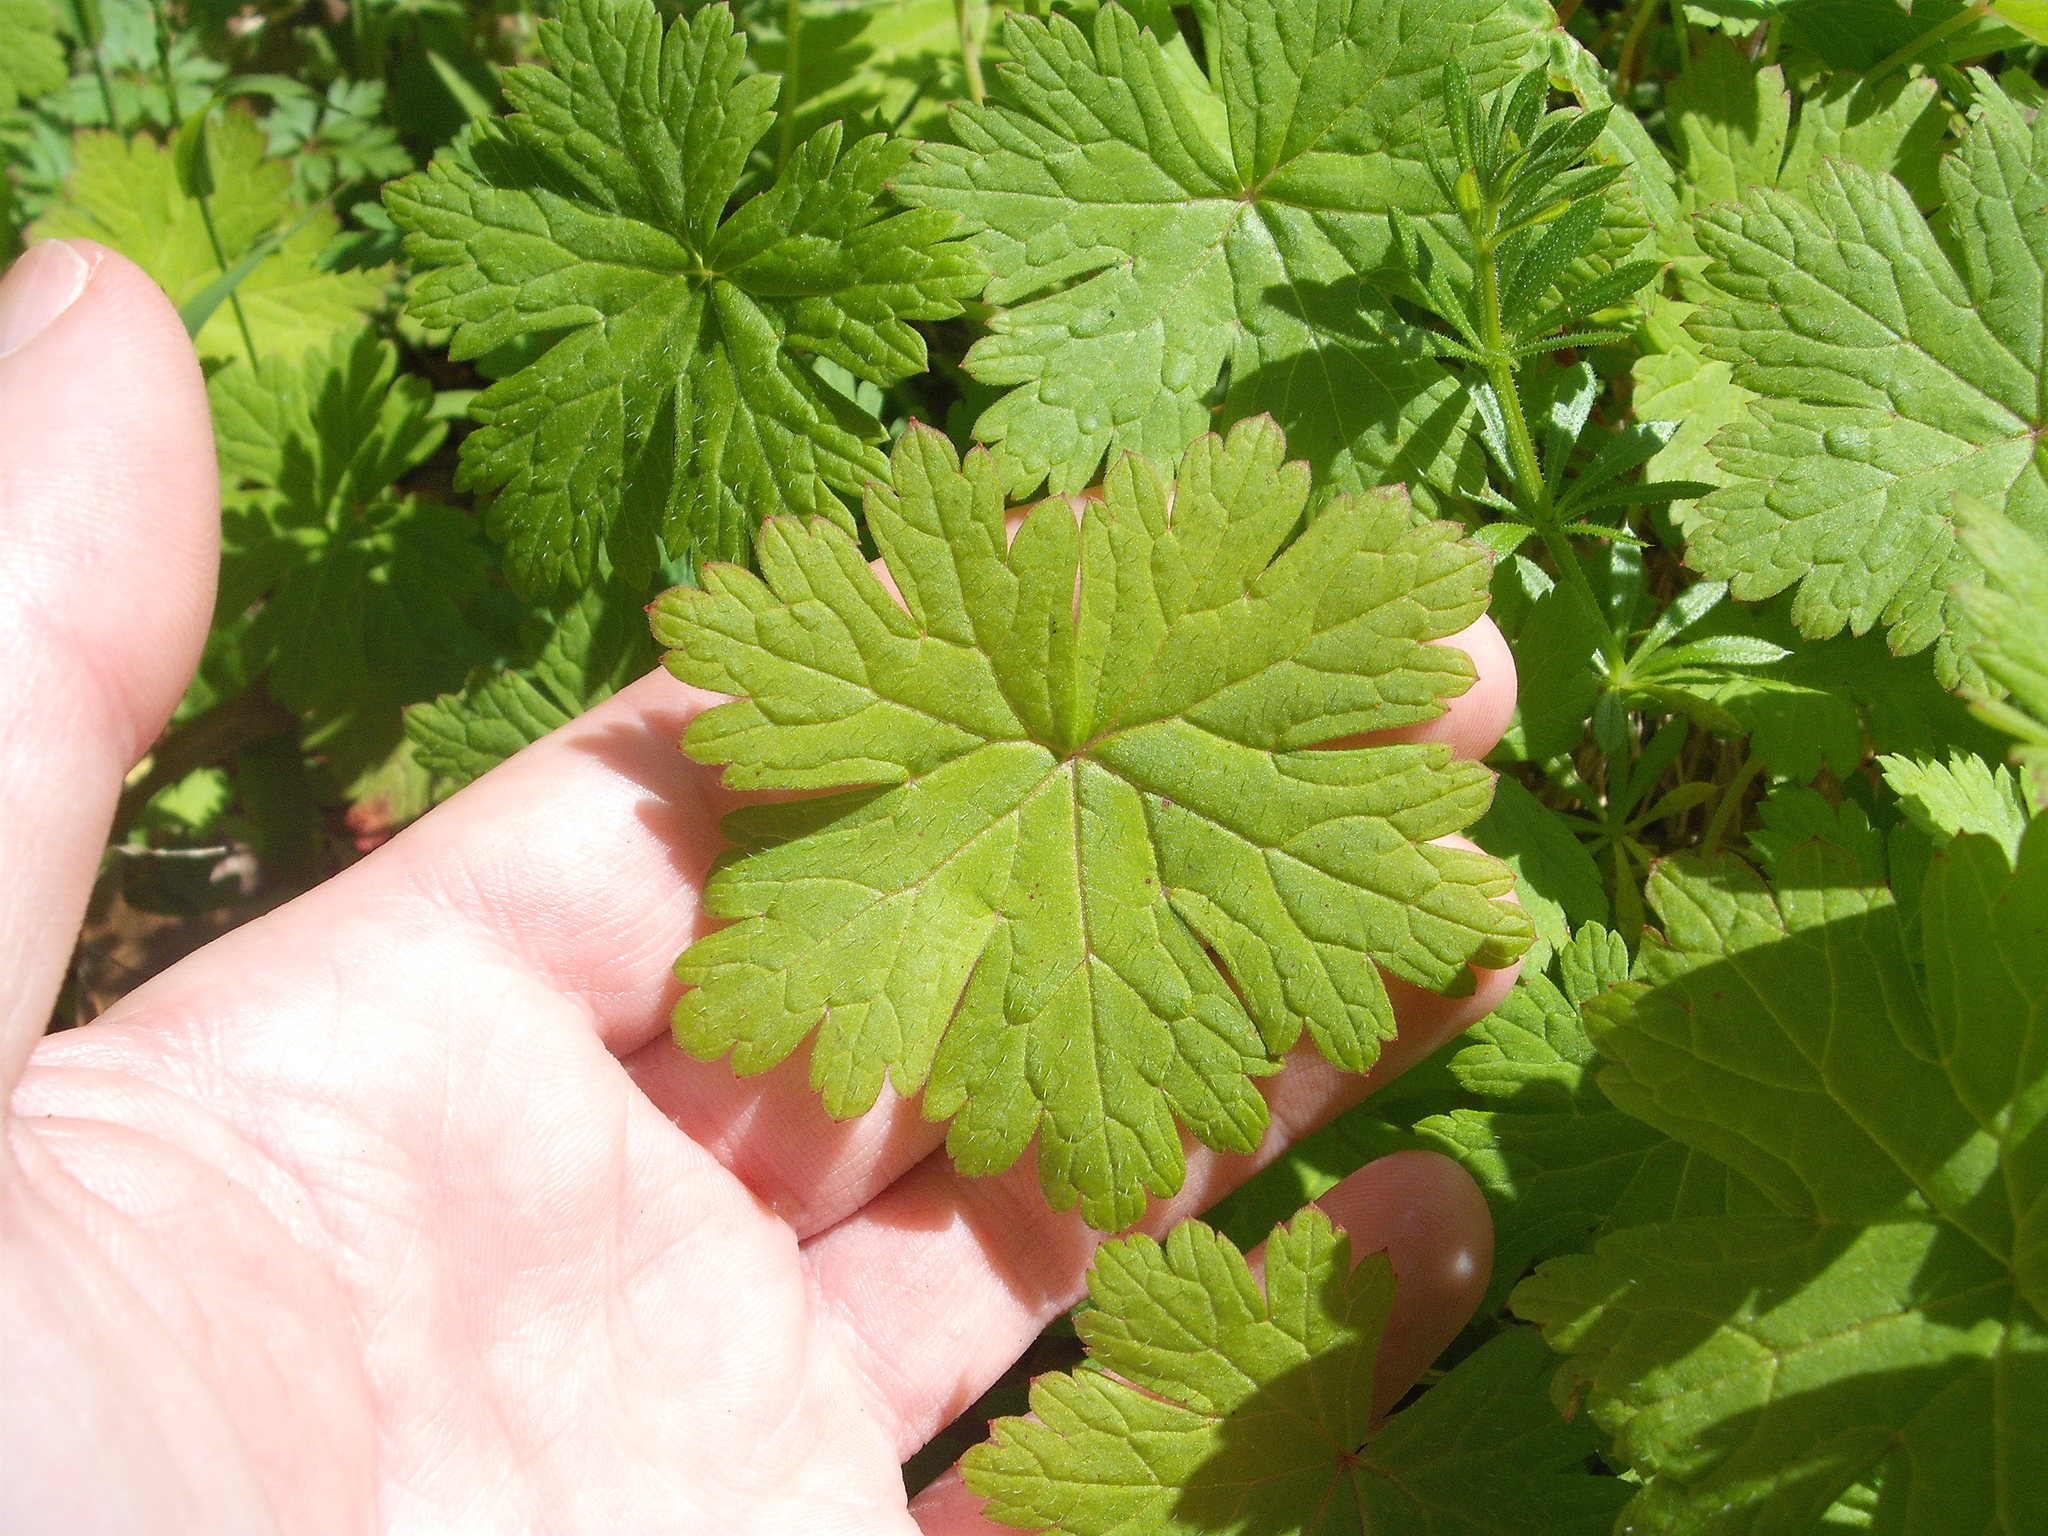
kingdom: Plantae
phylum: Tracheophyta
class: Magnoliopsida
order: Geraniales
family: Geraniaceae
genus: Geranium
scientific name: Geranium procurrens
